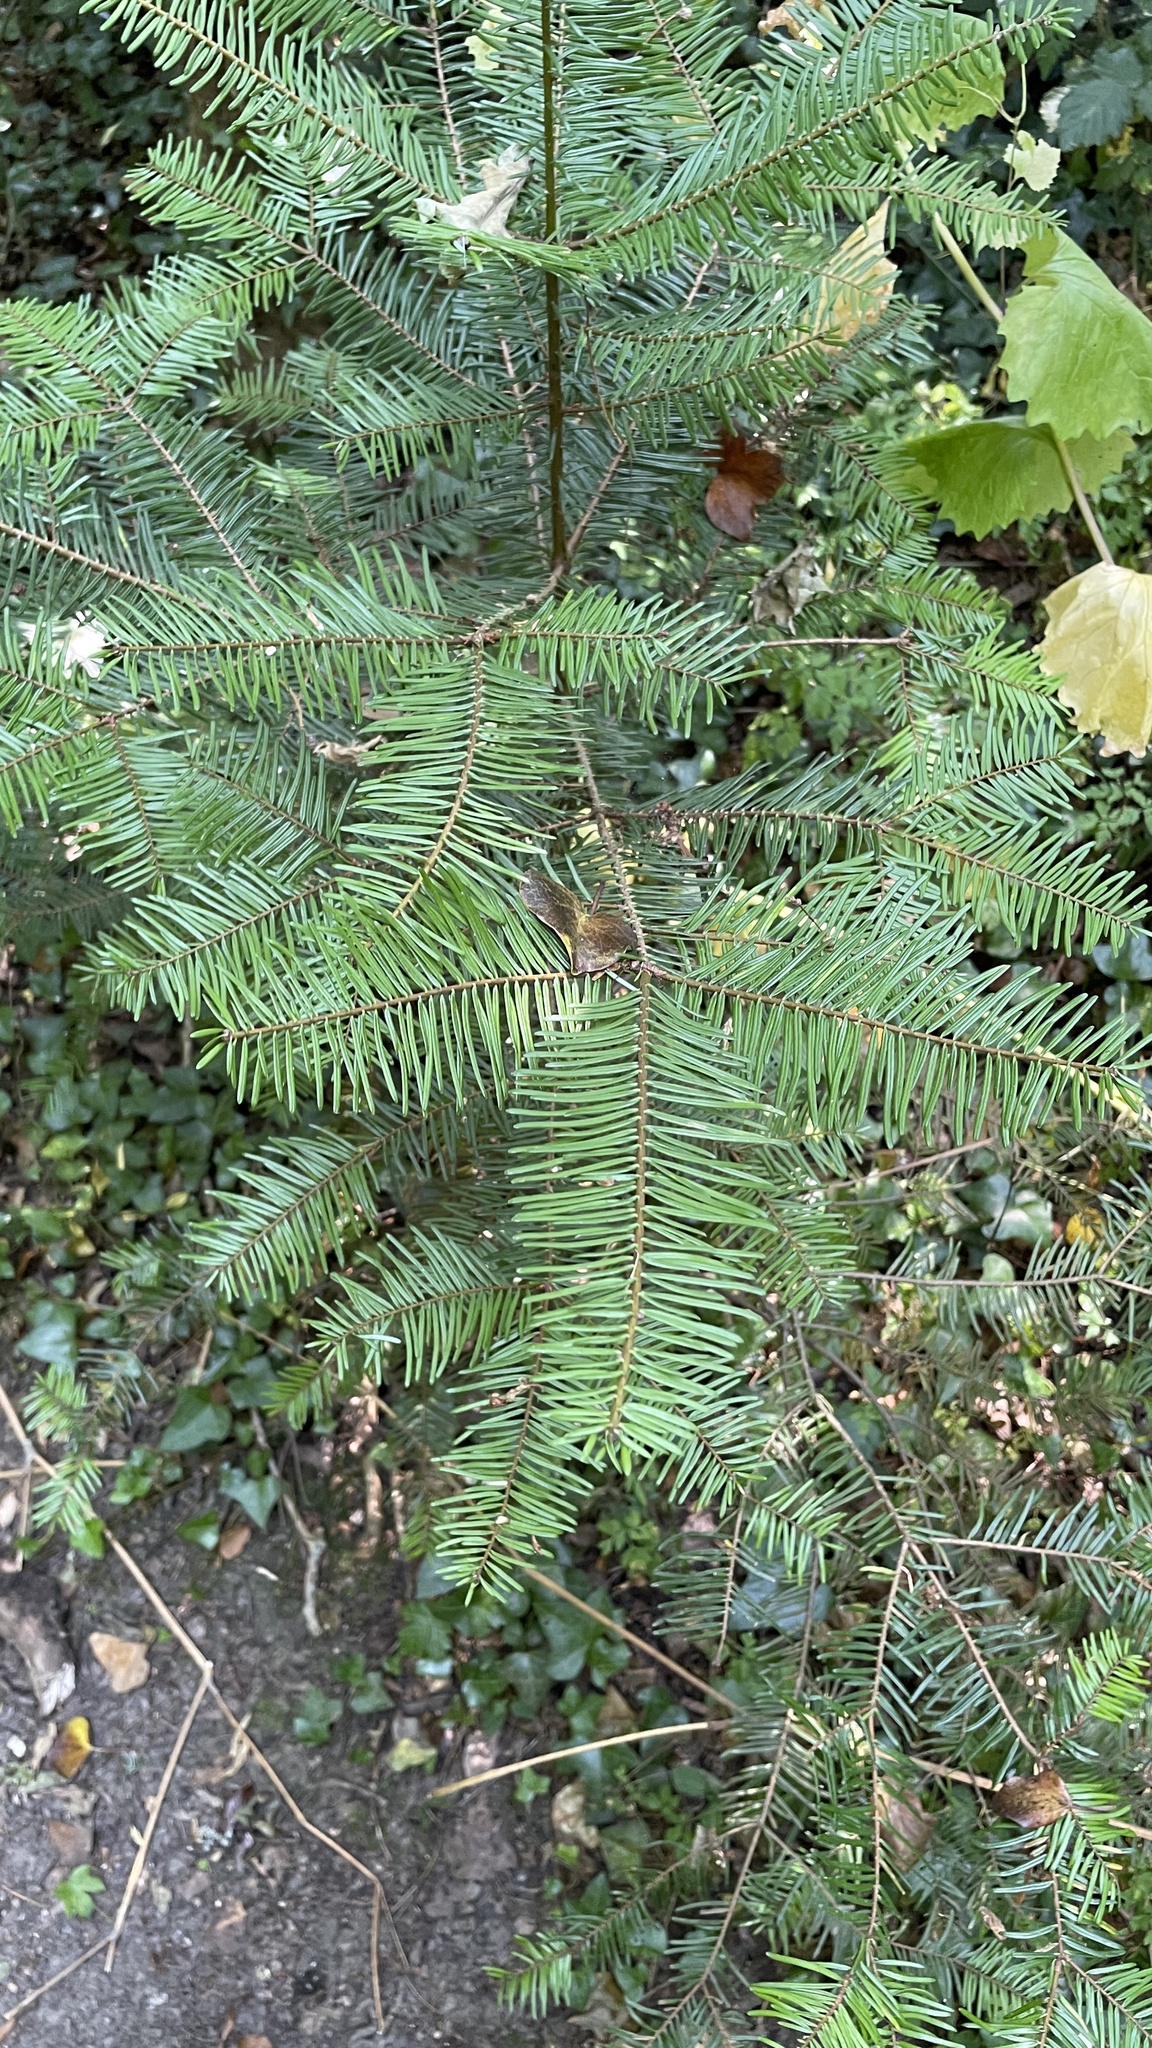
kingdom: Plantae
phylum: Tracheophyta
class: Pinopsida
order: Pinales
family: Pinaceae
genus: Abies
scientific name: Abies alba
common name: Silver fir
